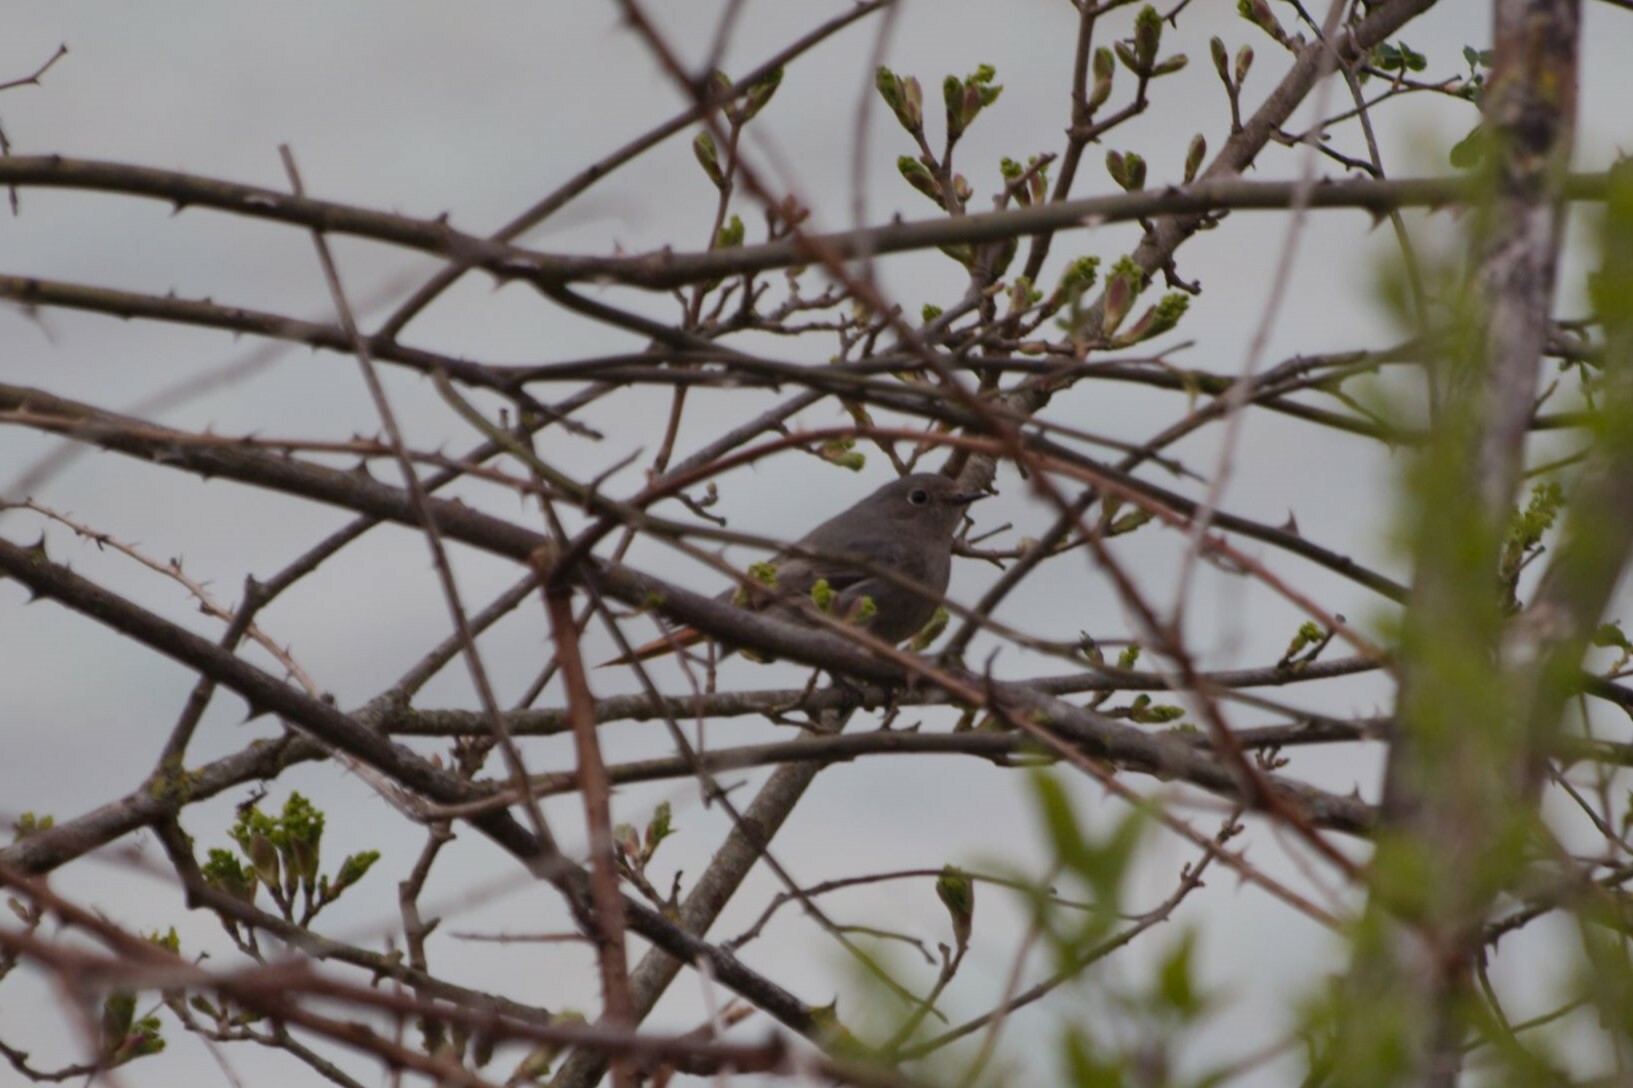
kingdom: Animalia
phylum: Chordata
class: Aves
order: Passeriformes
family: Muscicapidae
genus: Phoenicurus
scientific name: Phoenicurus ochruros
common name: Black redstart
